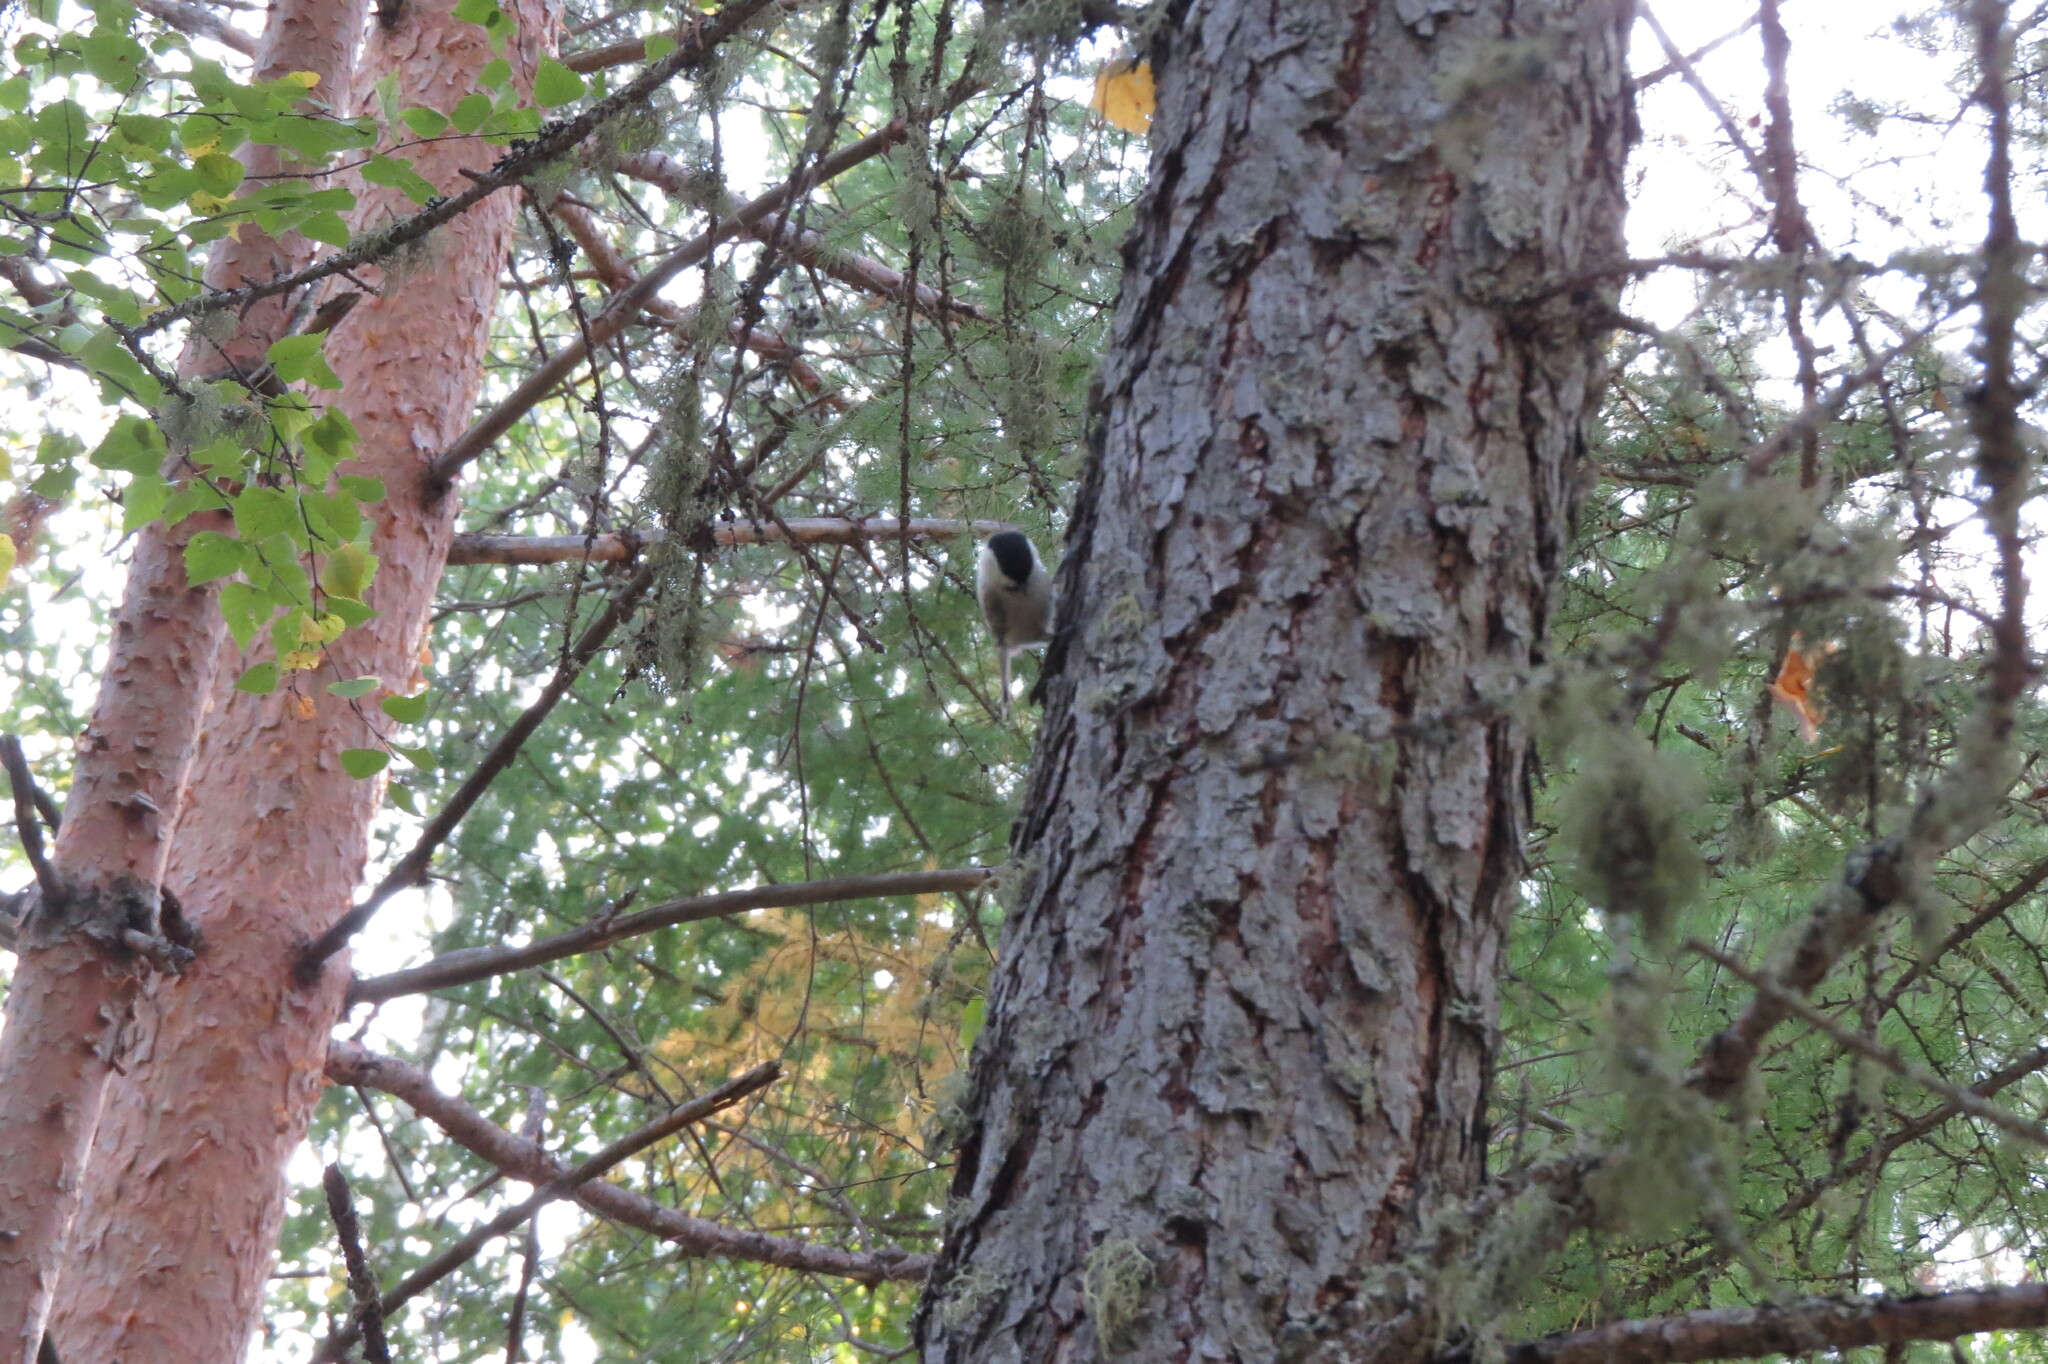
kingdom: Animalia
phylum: Chordata
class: Aves
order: Passeriformes
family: Paridae
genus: Poecile
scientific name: Poecile montanus
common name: Willow tit
